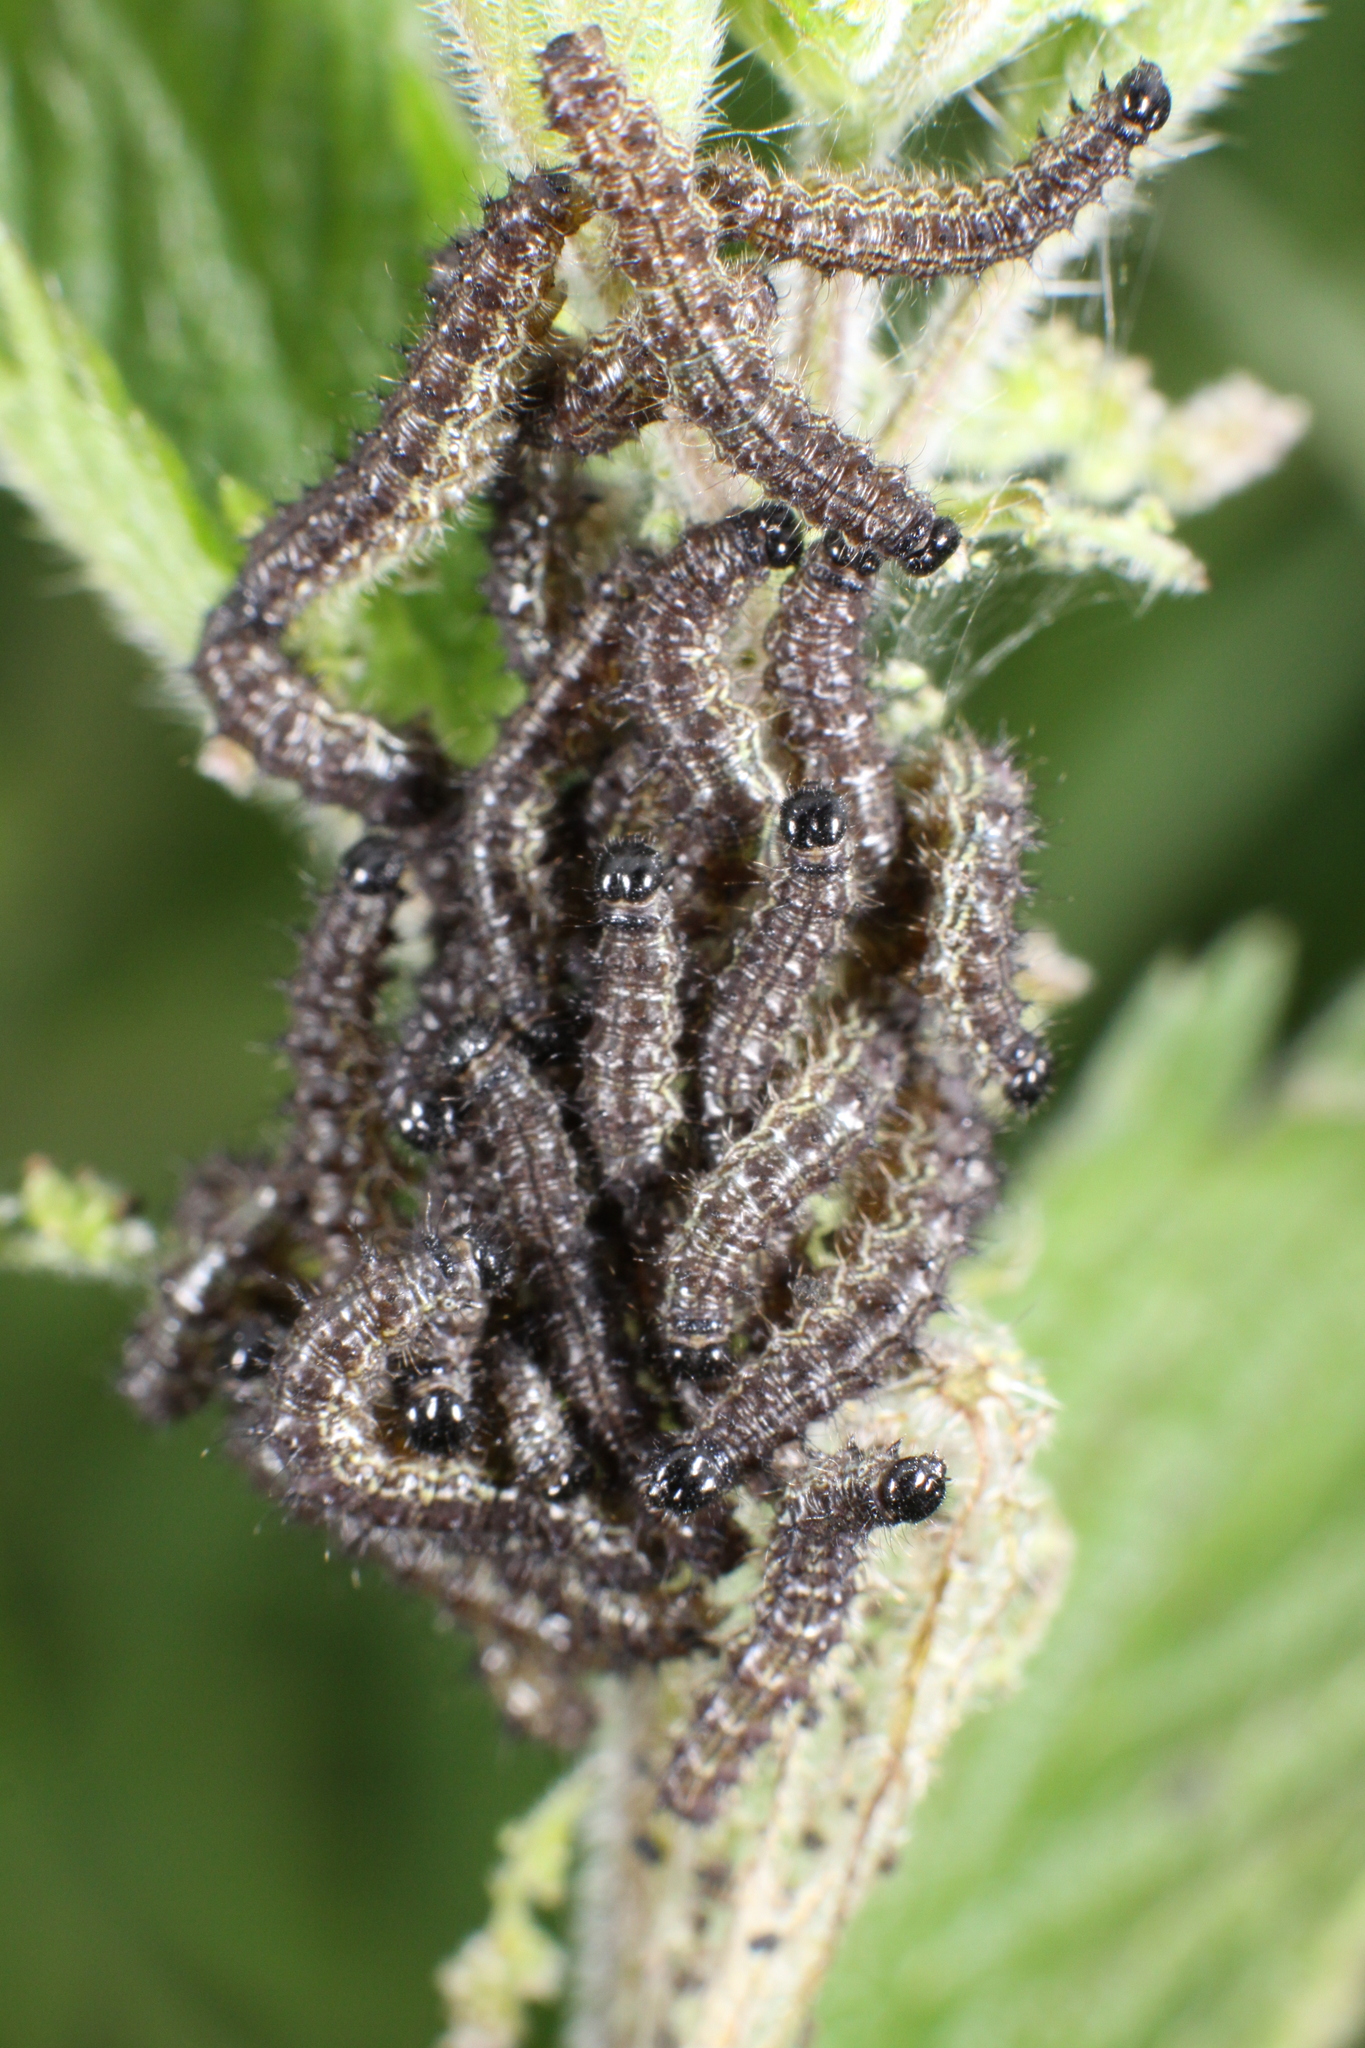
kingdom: Animalia
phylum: Arthropoda
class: Insecta
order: Lepidoptera
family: Nymphalidae
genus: Aglais
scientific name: Aglais urticae
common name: Small tortoiseshell
